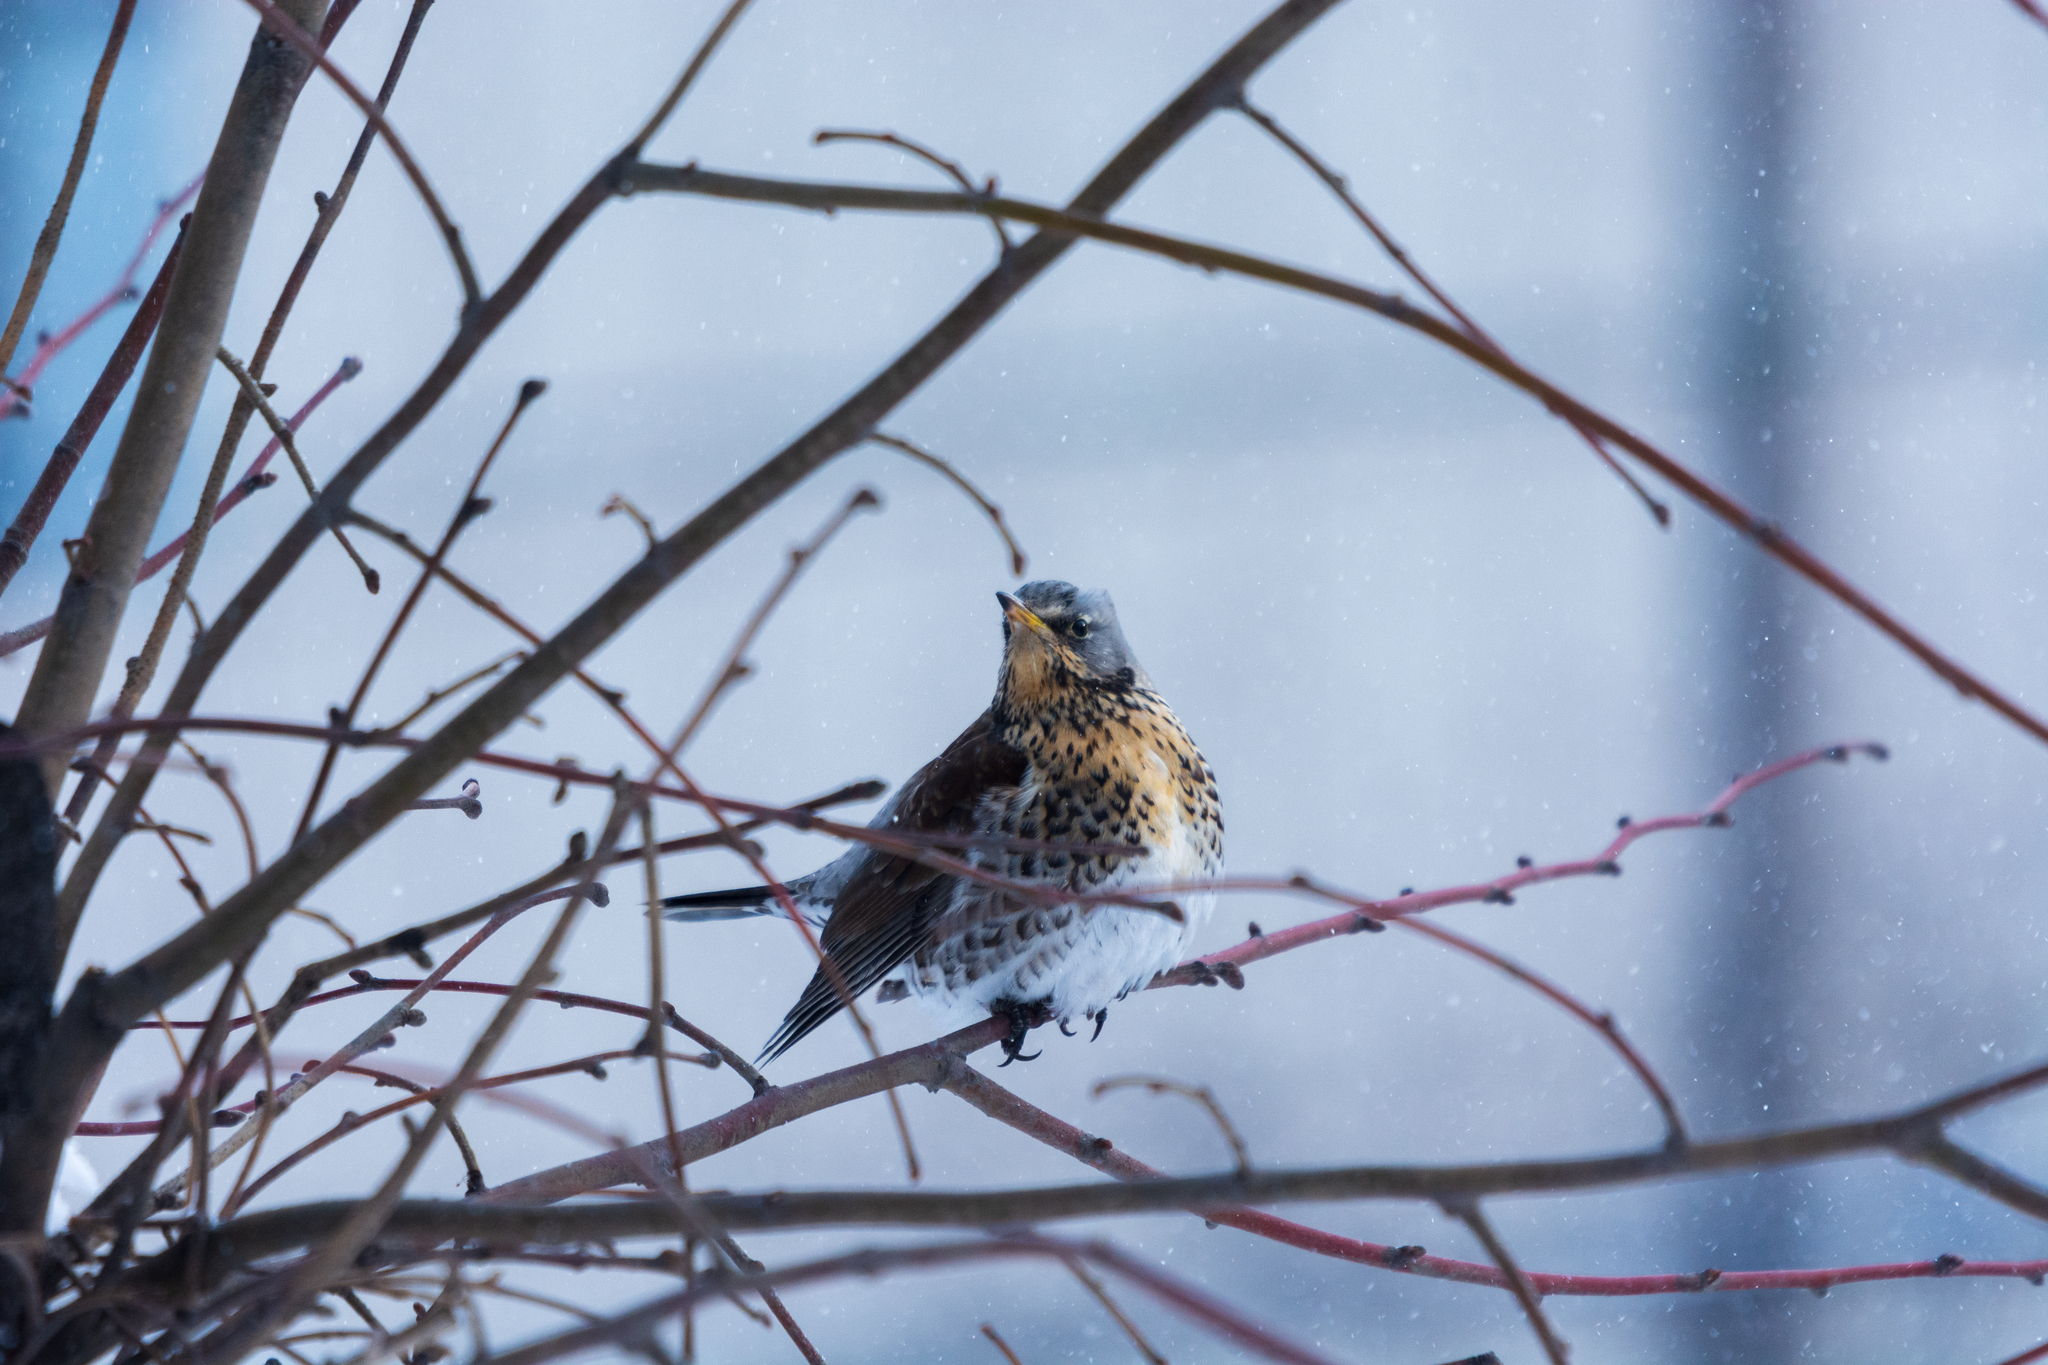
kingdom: Animalia
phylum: Chordata
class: Aves
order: Passeriformes
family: Turdidae
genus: Turdus
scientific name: Turdus pilaris
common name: Fieldfare
